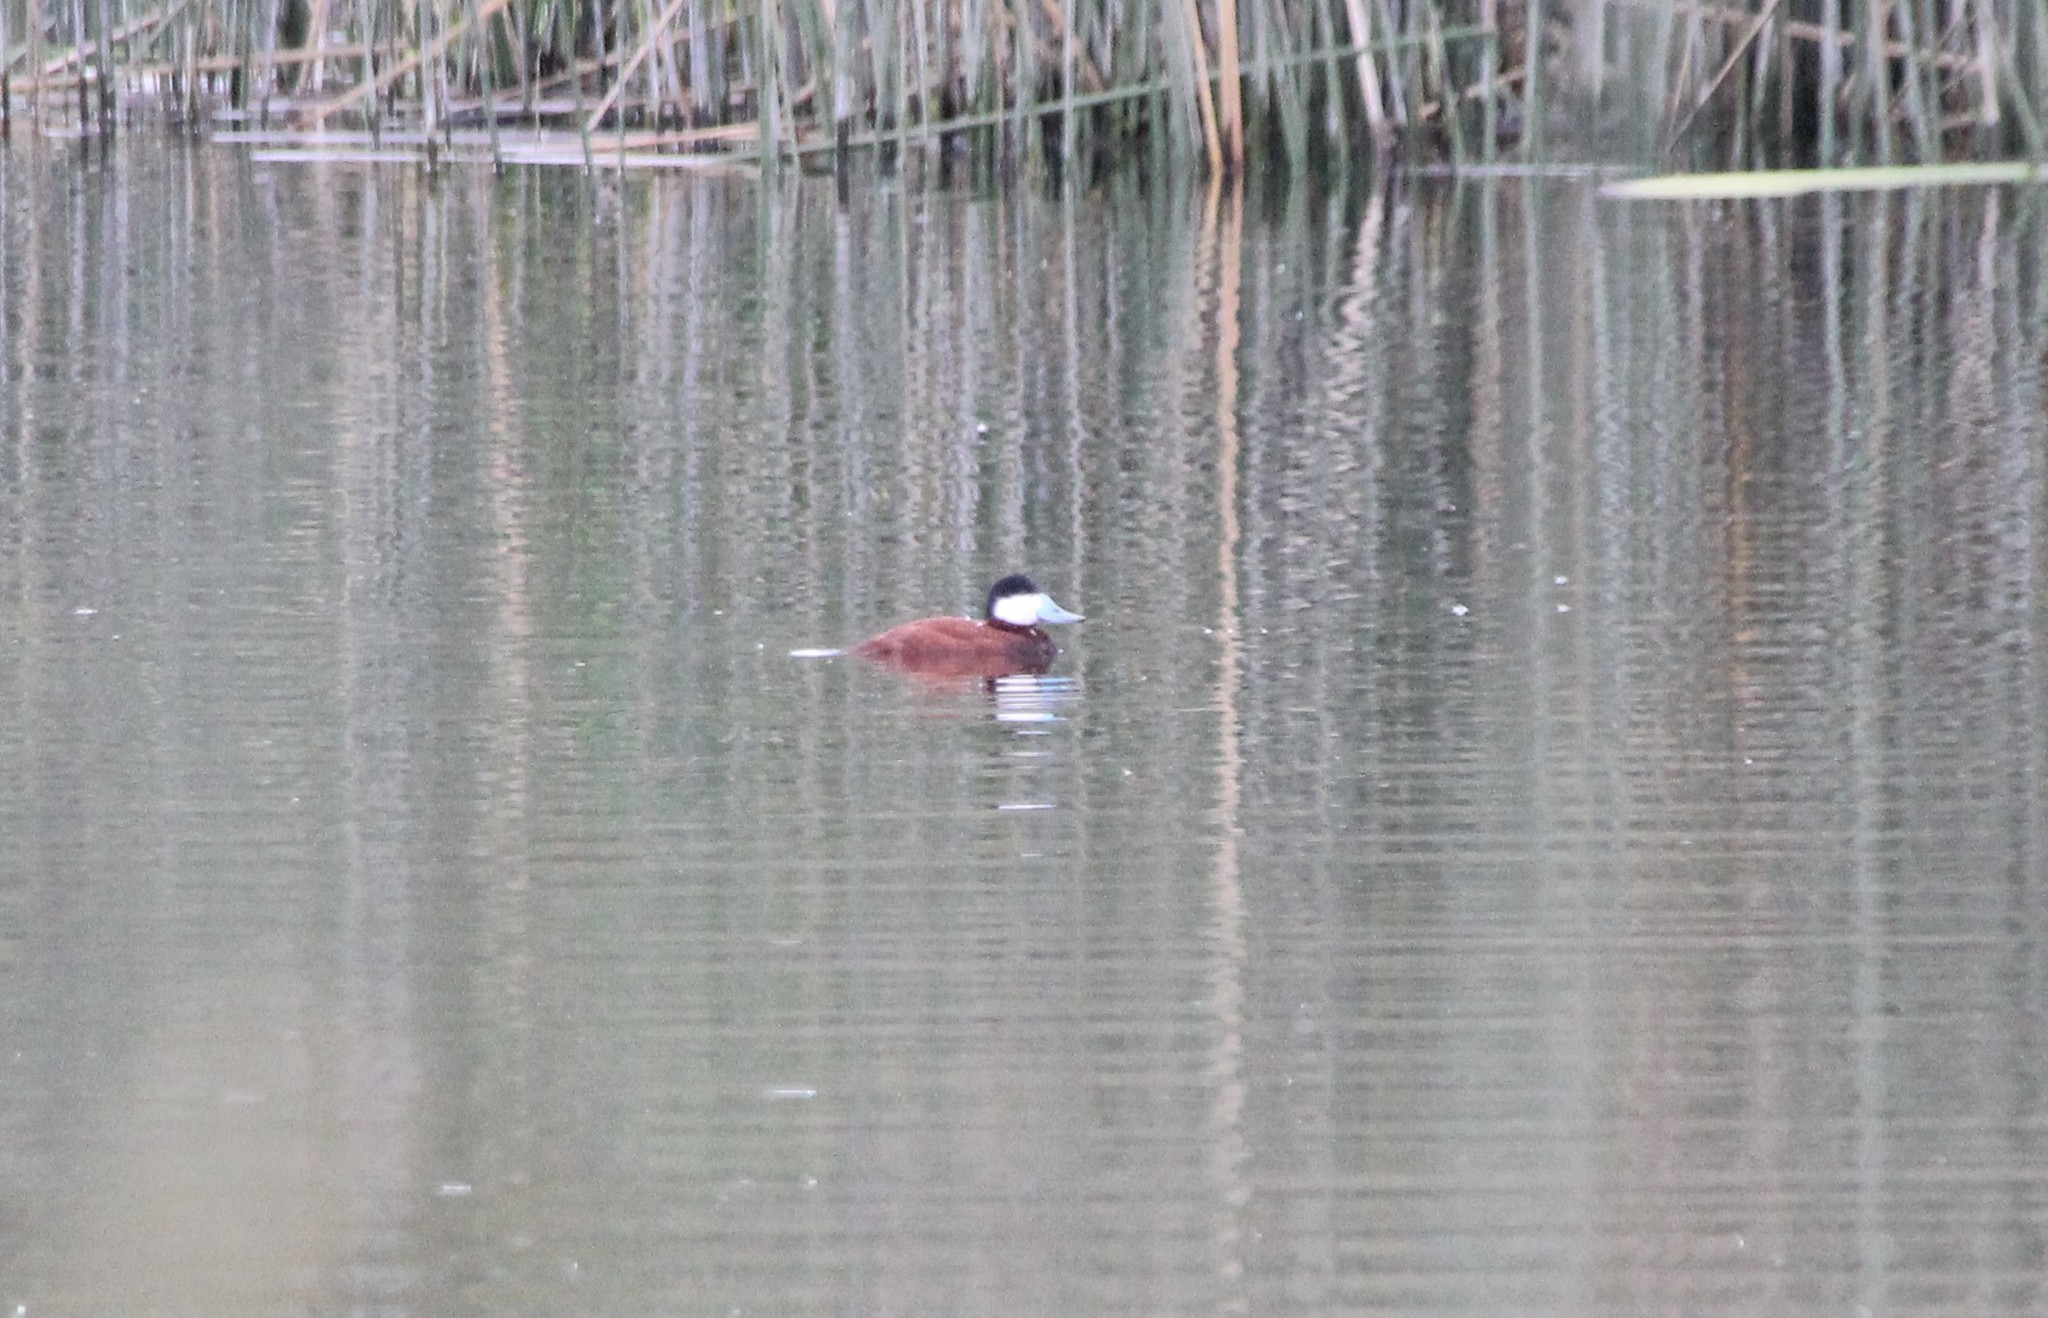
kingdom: Animalia
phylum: Chordata
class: Aves
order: Anseriformes
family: Anatidae
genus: Oxyura
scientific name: Oxyura jamaicensis
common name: Ruddy duck
